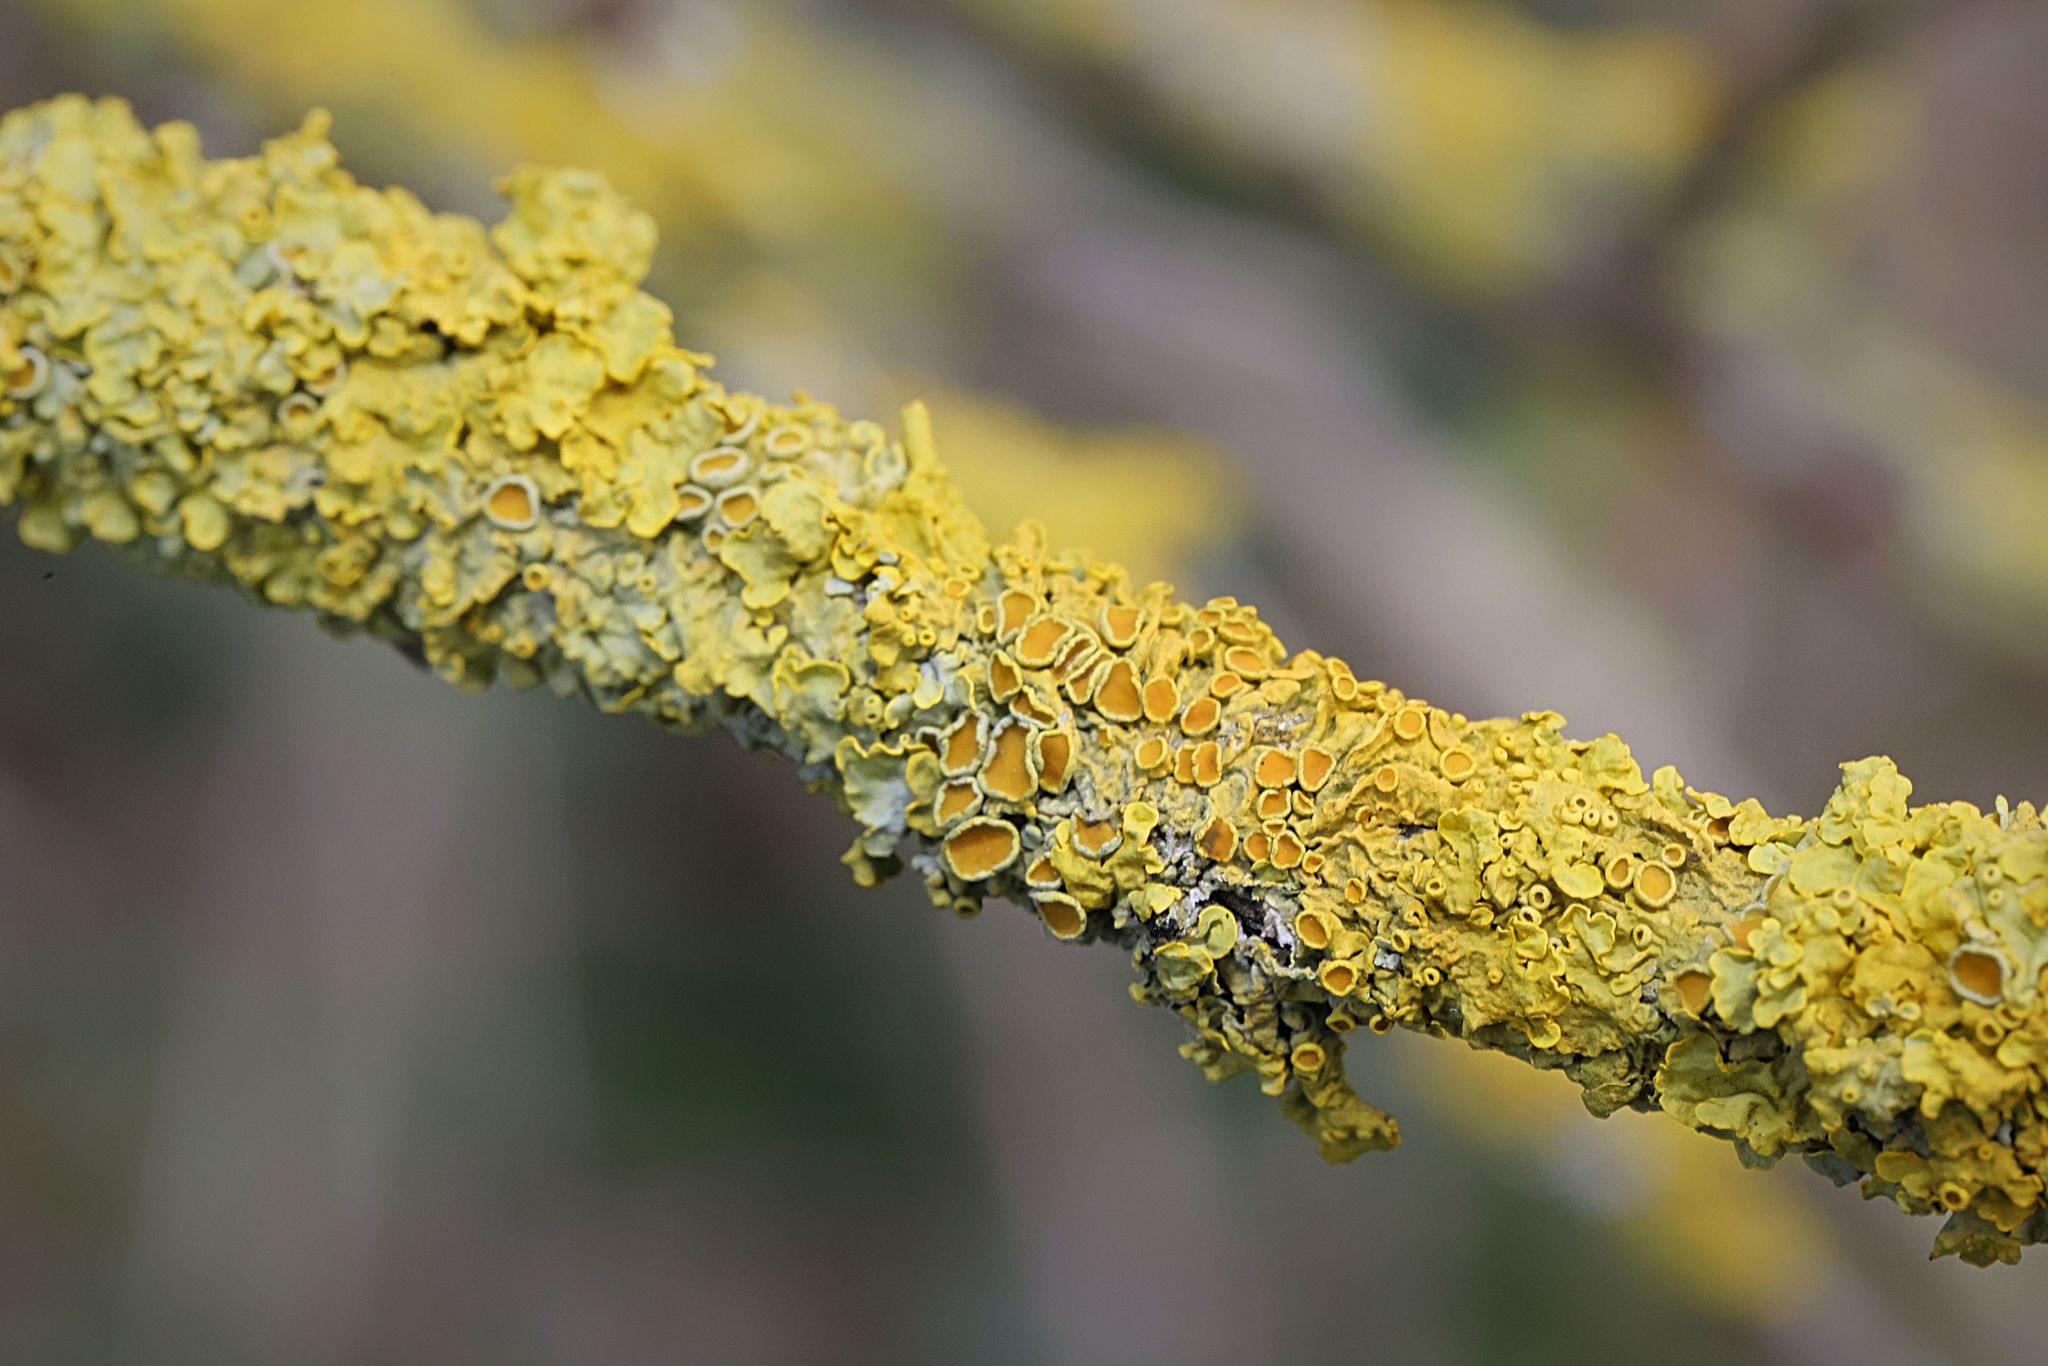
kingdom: Fungi
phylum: Ascomycota
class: Lecanoromycetes
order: Teloschistales
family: Teloschistaceae
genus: Xanthoria
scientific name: Xanthoria parietina
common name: Common orange lichen
